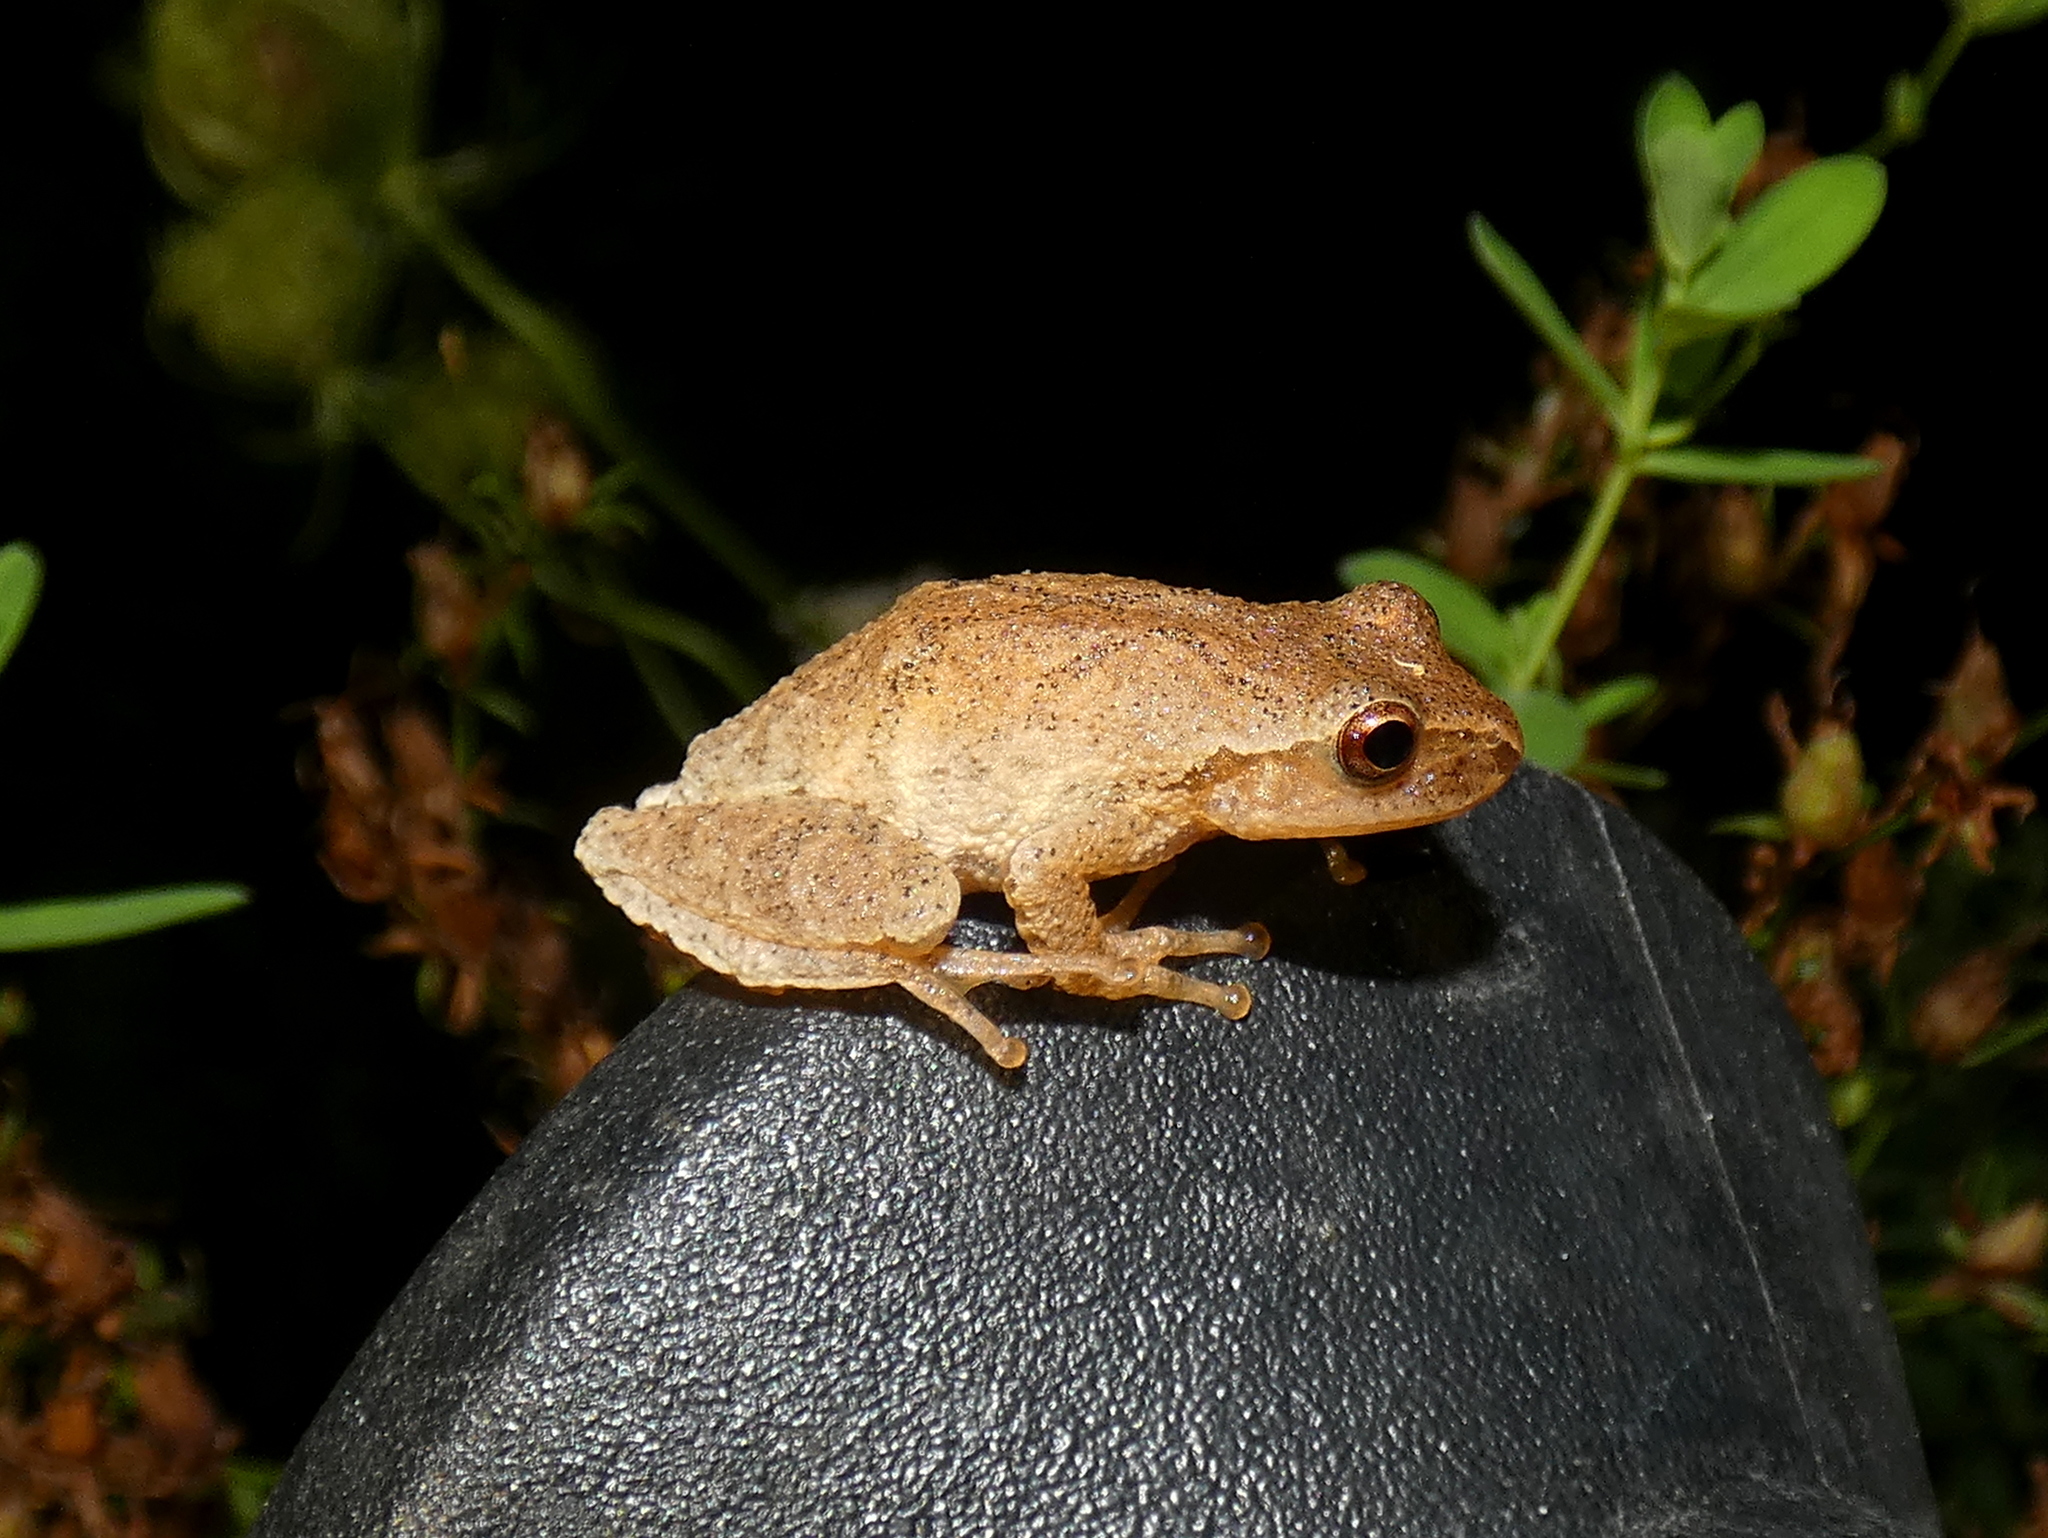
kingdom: Animalia
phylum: Chordata
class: Amphibia
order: Anura
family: Hylidae
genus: Pseudacris
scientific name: Pseudacris crucifer
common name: Spring peeper
